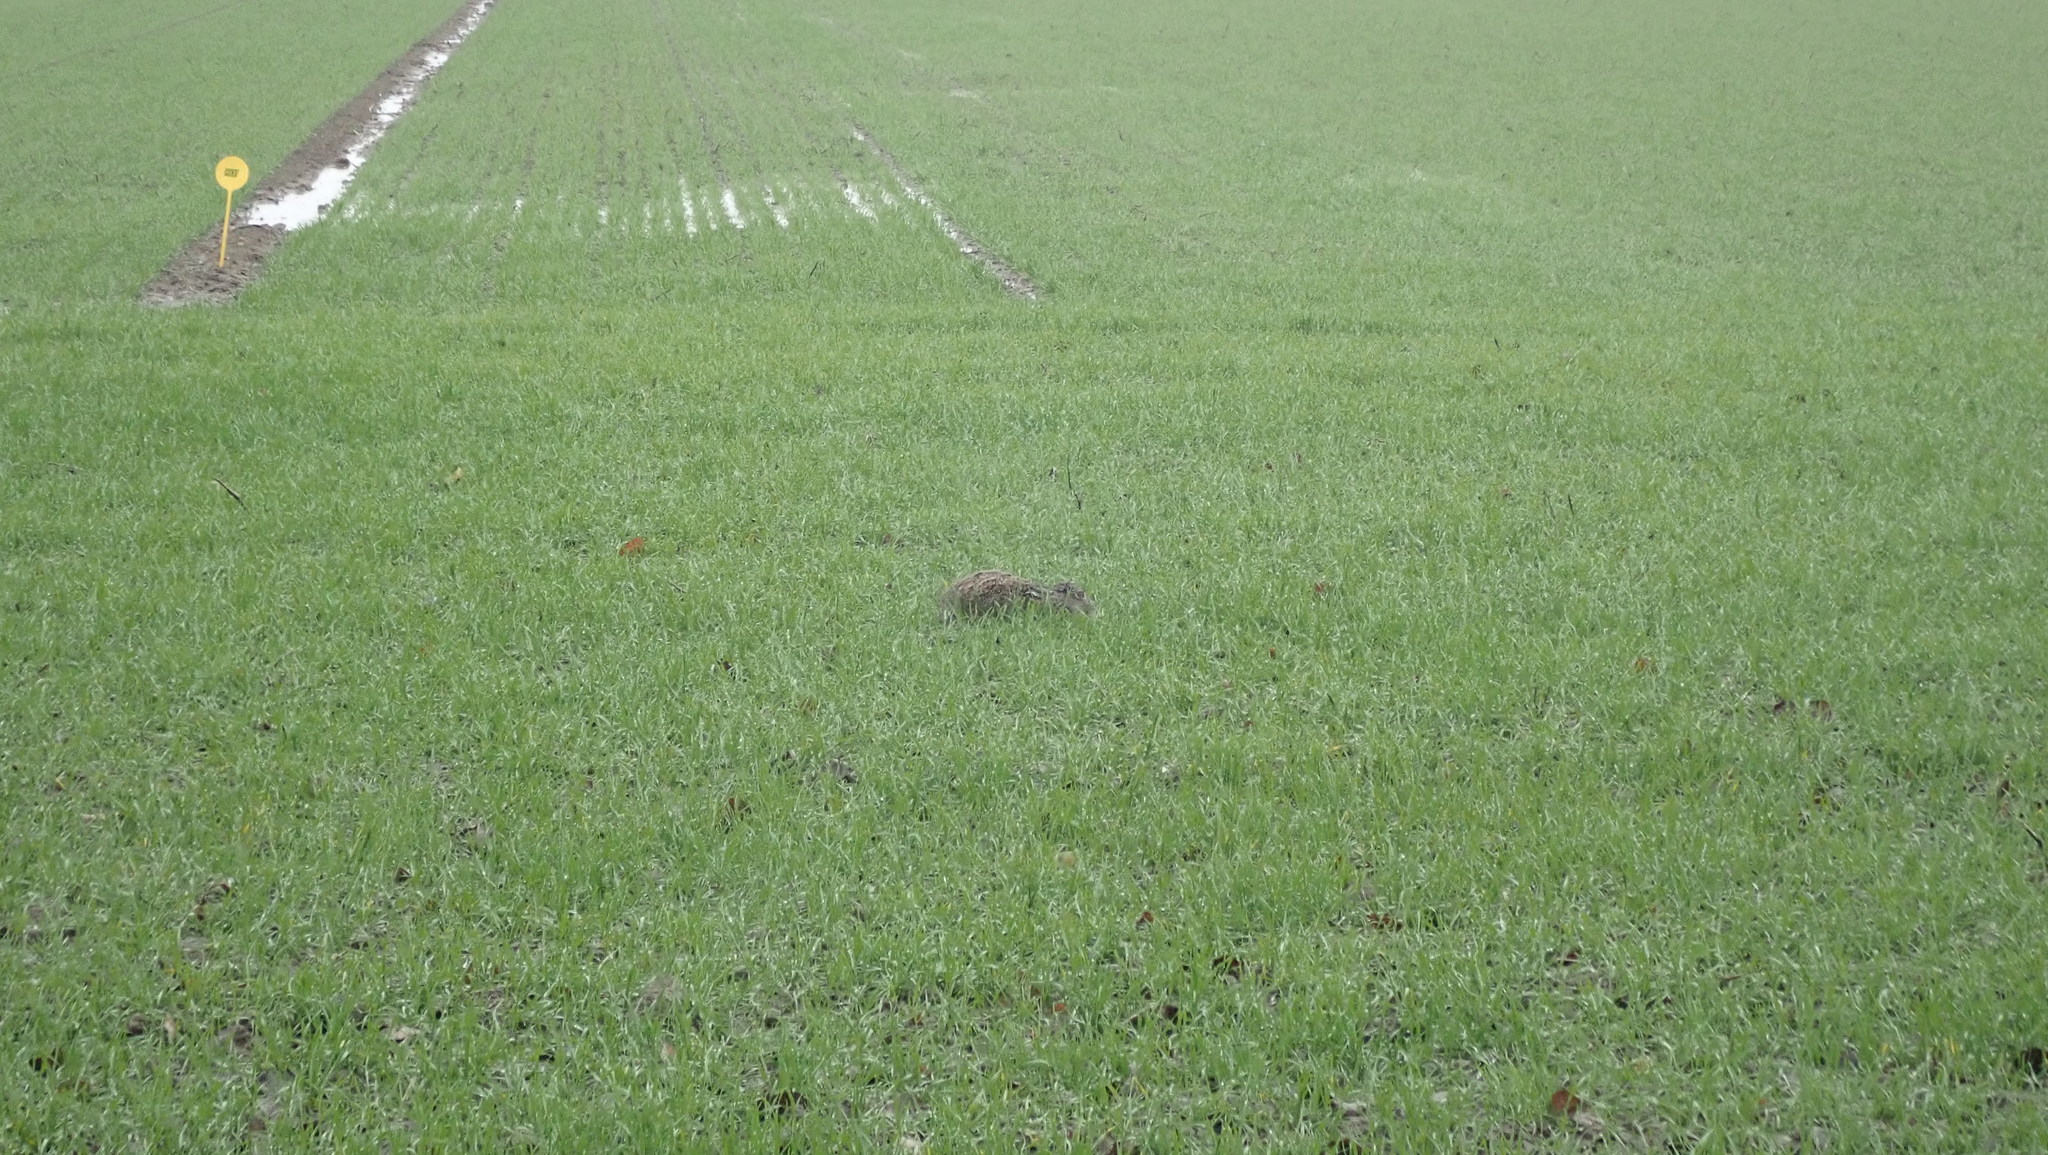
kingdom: Animalia
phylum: Chordata
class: Mammalia
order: Lagomorpha
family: Leporidae
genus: Lepus
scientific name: Lepus europaeus
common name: European hare
